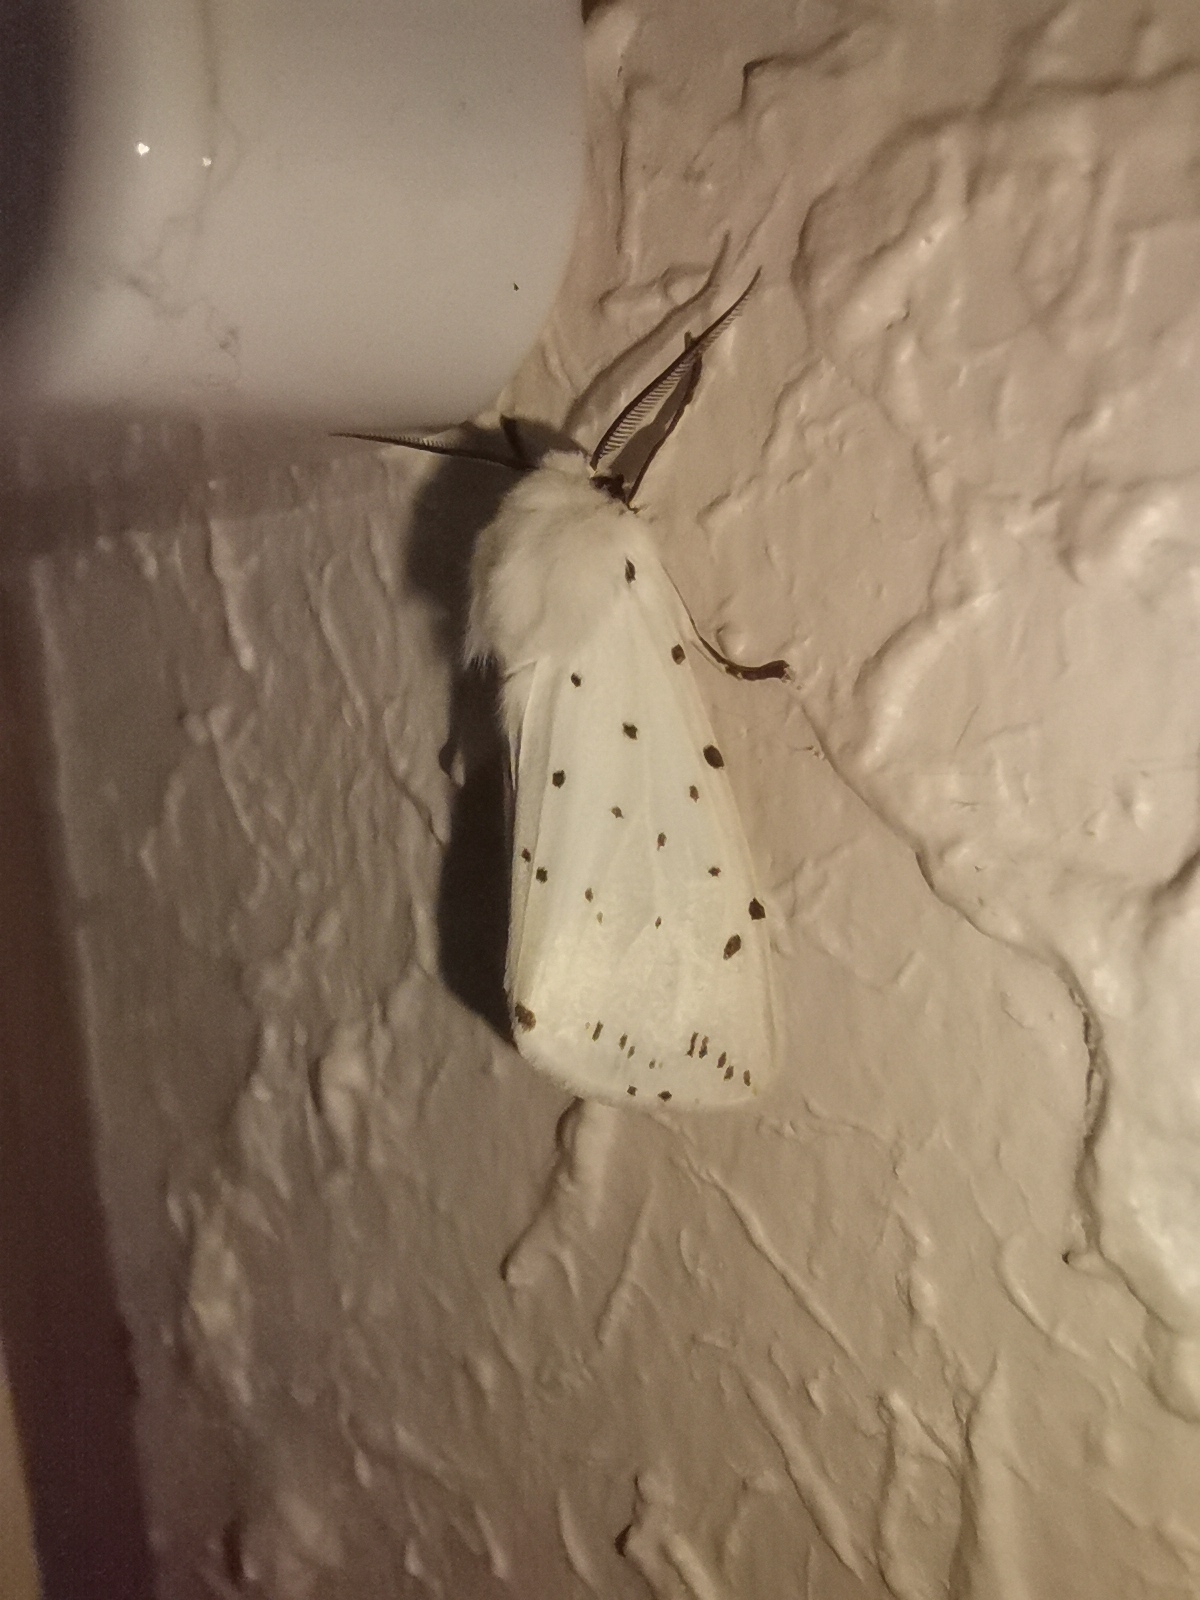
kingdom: Animalia
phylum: Arthropoda
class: Insecta
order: Lepidoptera
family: Erebidae
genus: Spilosoma
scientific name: Spilosoma lubricipeda
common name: White ermine
